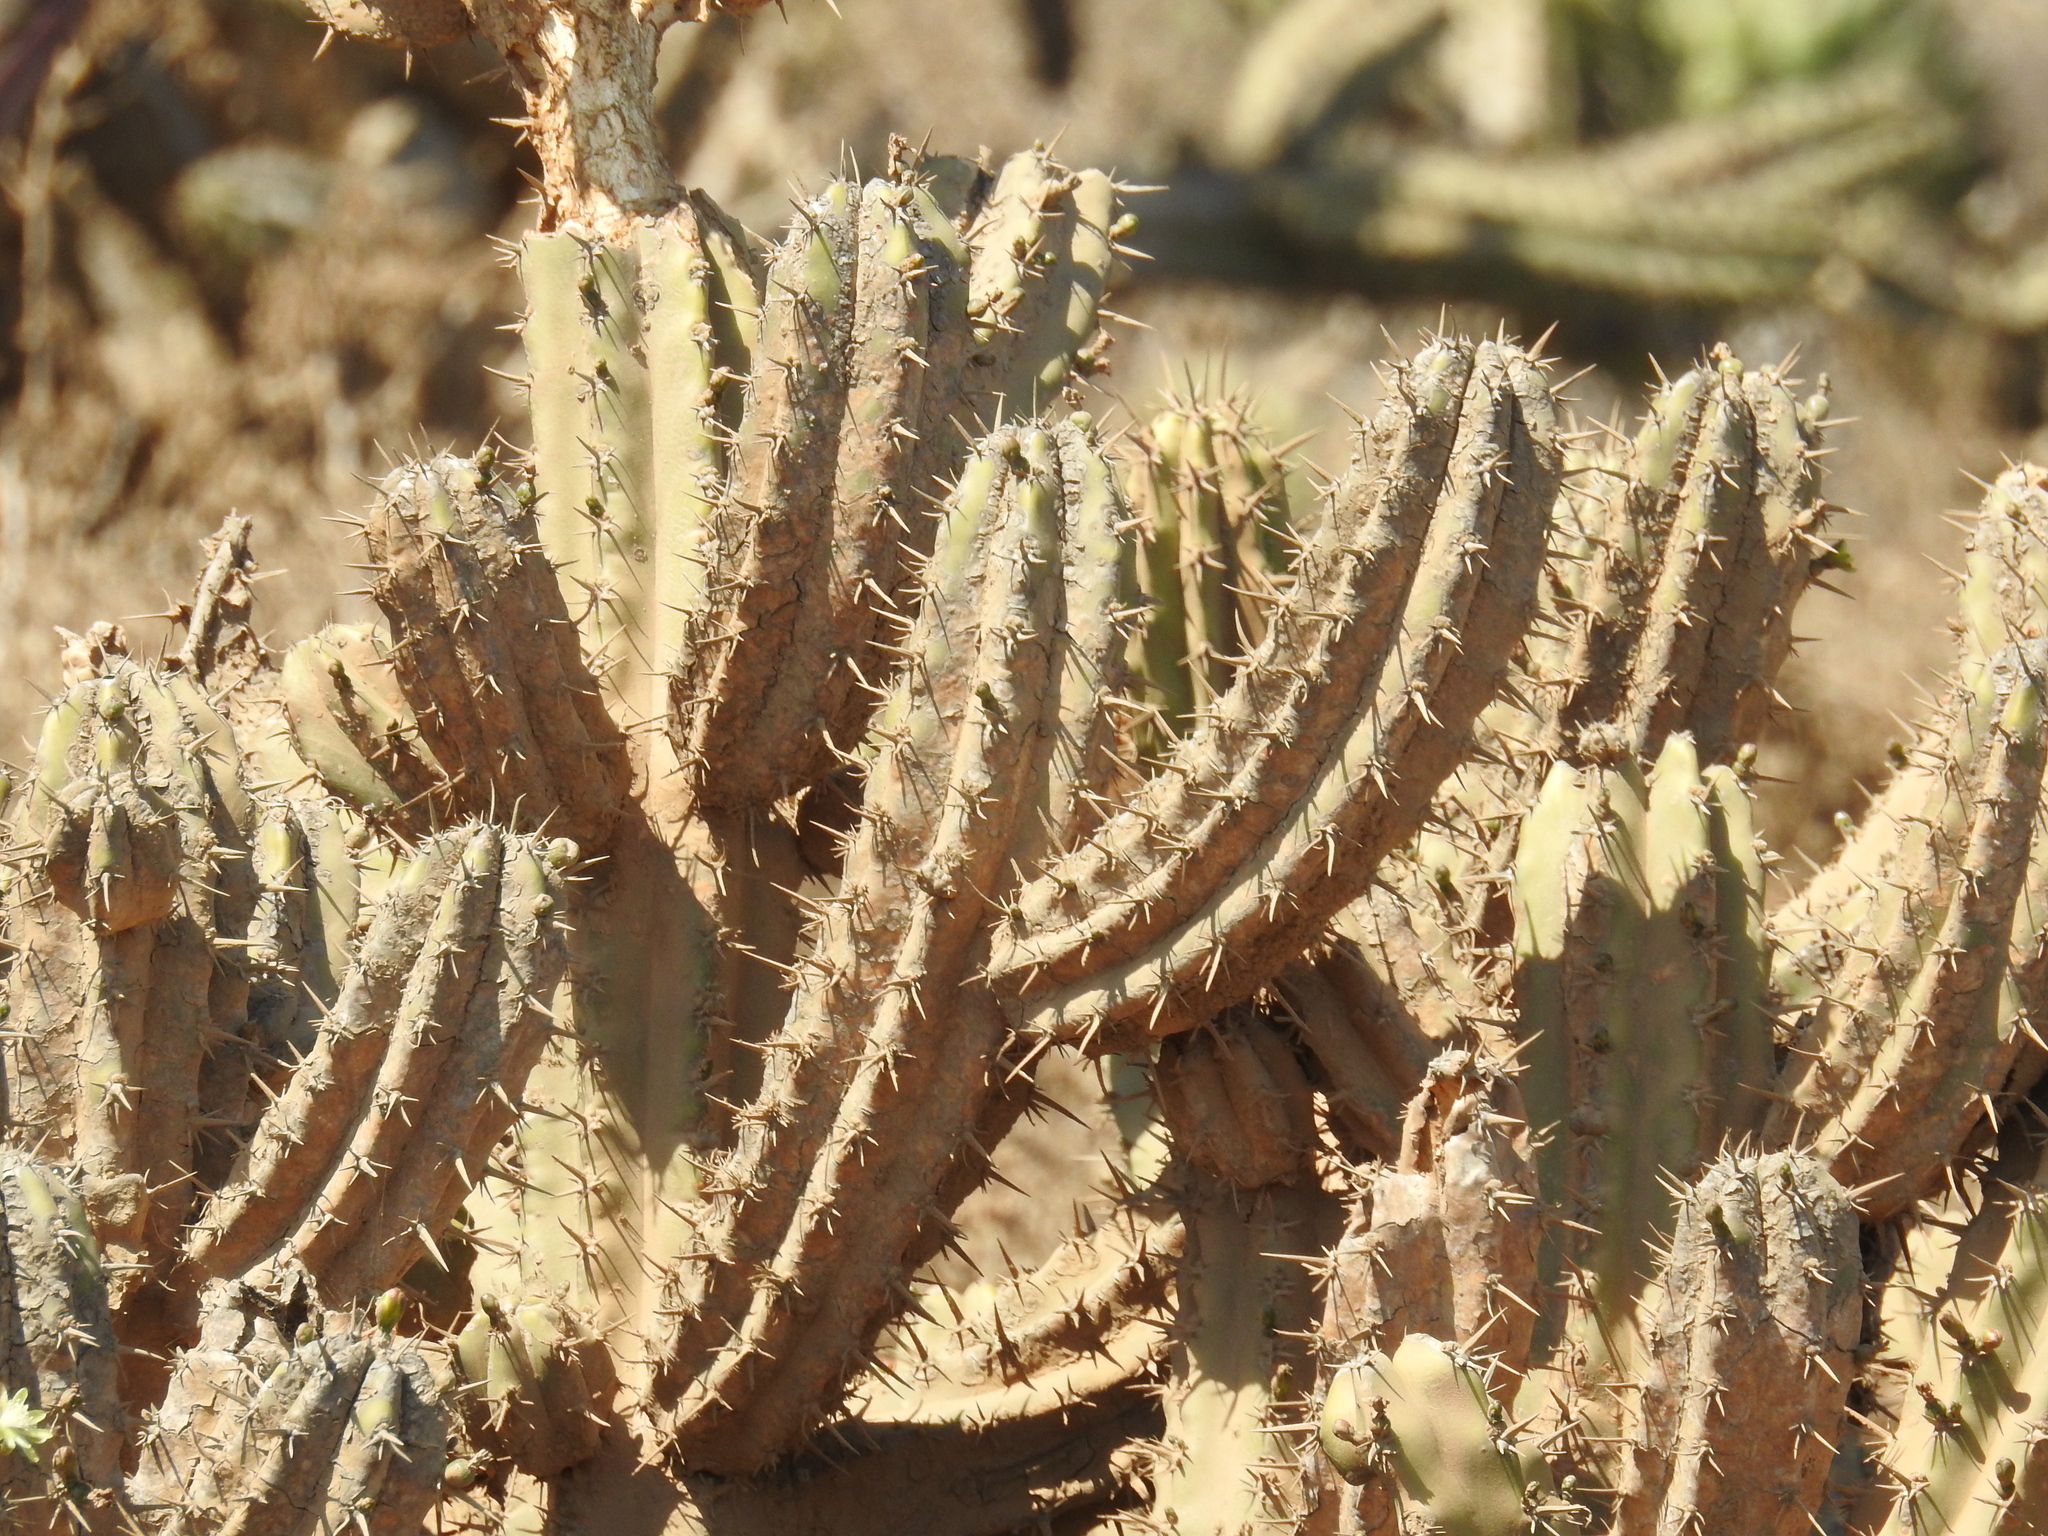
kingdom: Plantae
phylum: Tracheophyta
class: Magnoliopsida
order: Caryophyllales
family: Cactaceae
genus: Myrtillocactus
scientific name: Myrtillocactus cochal
